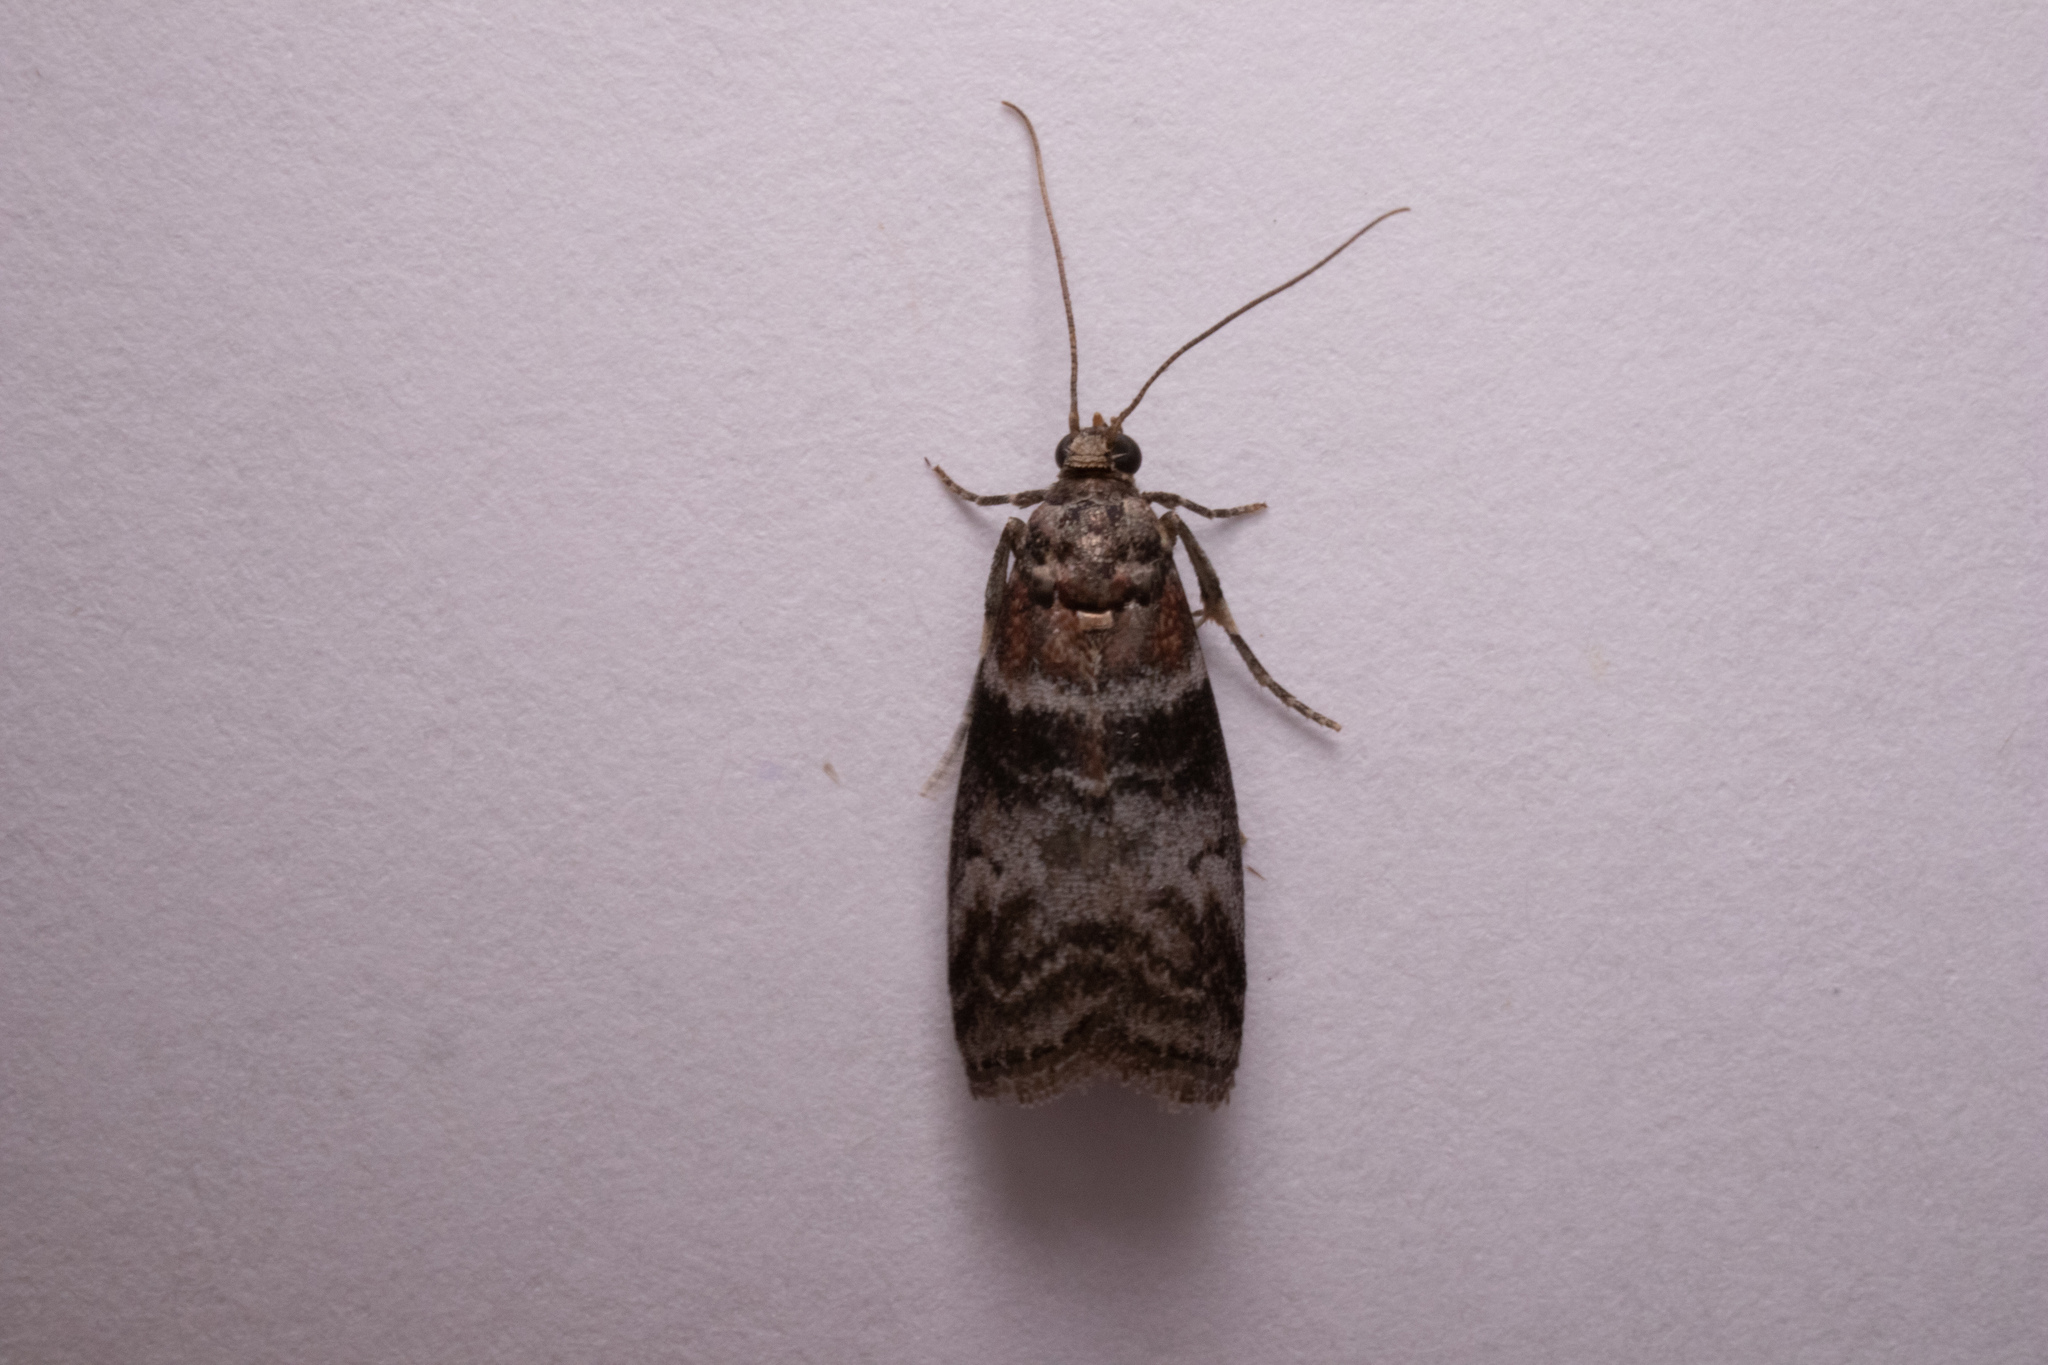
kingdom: Animalia
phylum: Arthropoda
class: Insecta
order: Lepidoptera
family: Pyralidae
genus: Sciota
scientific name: Sciota uvinella
